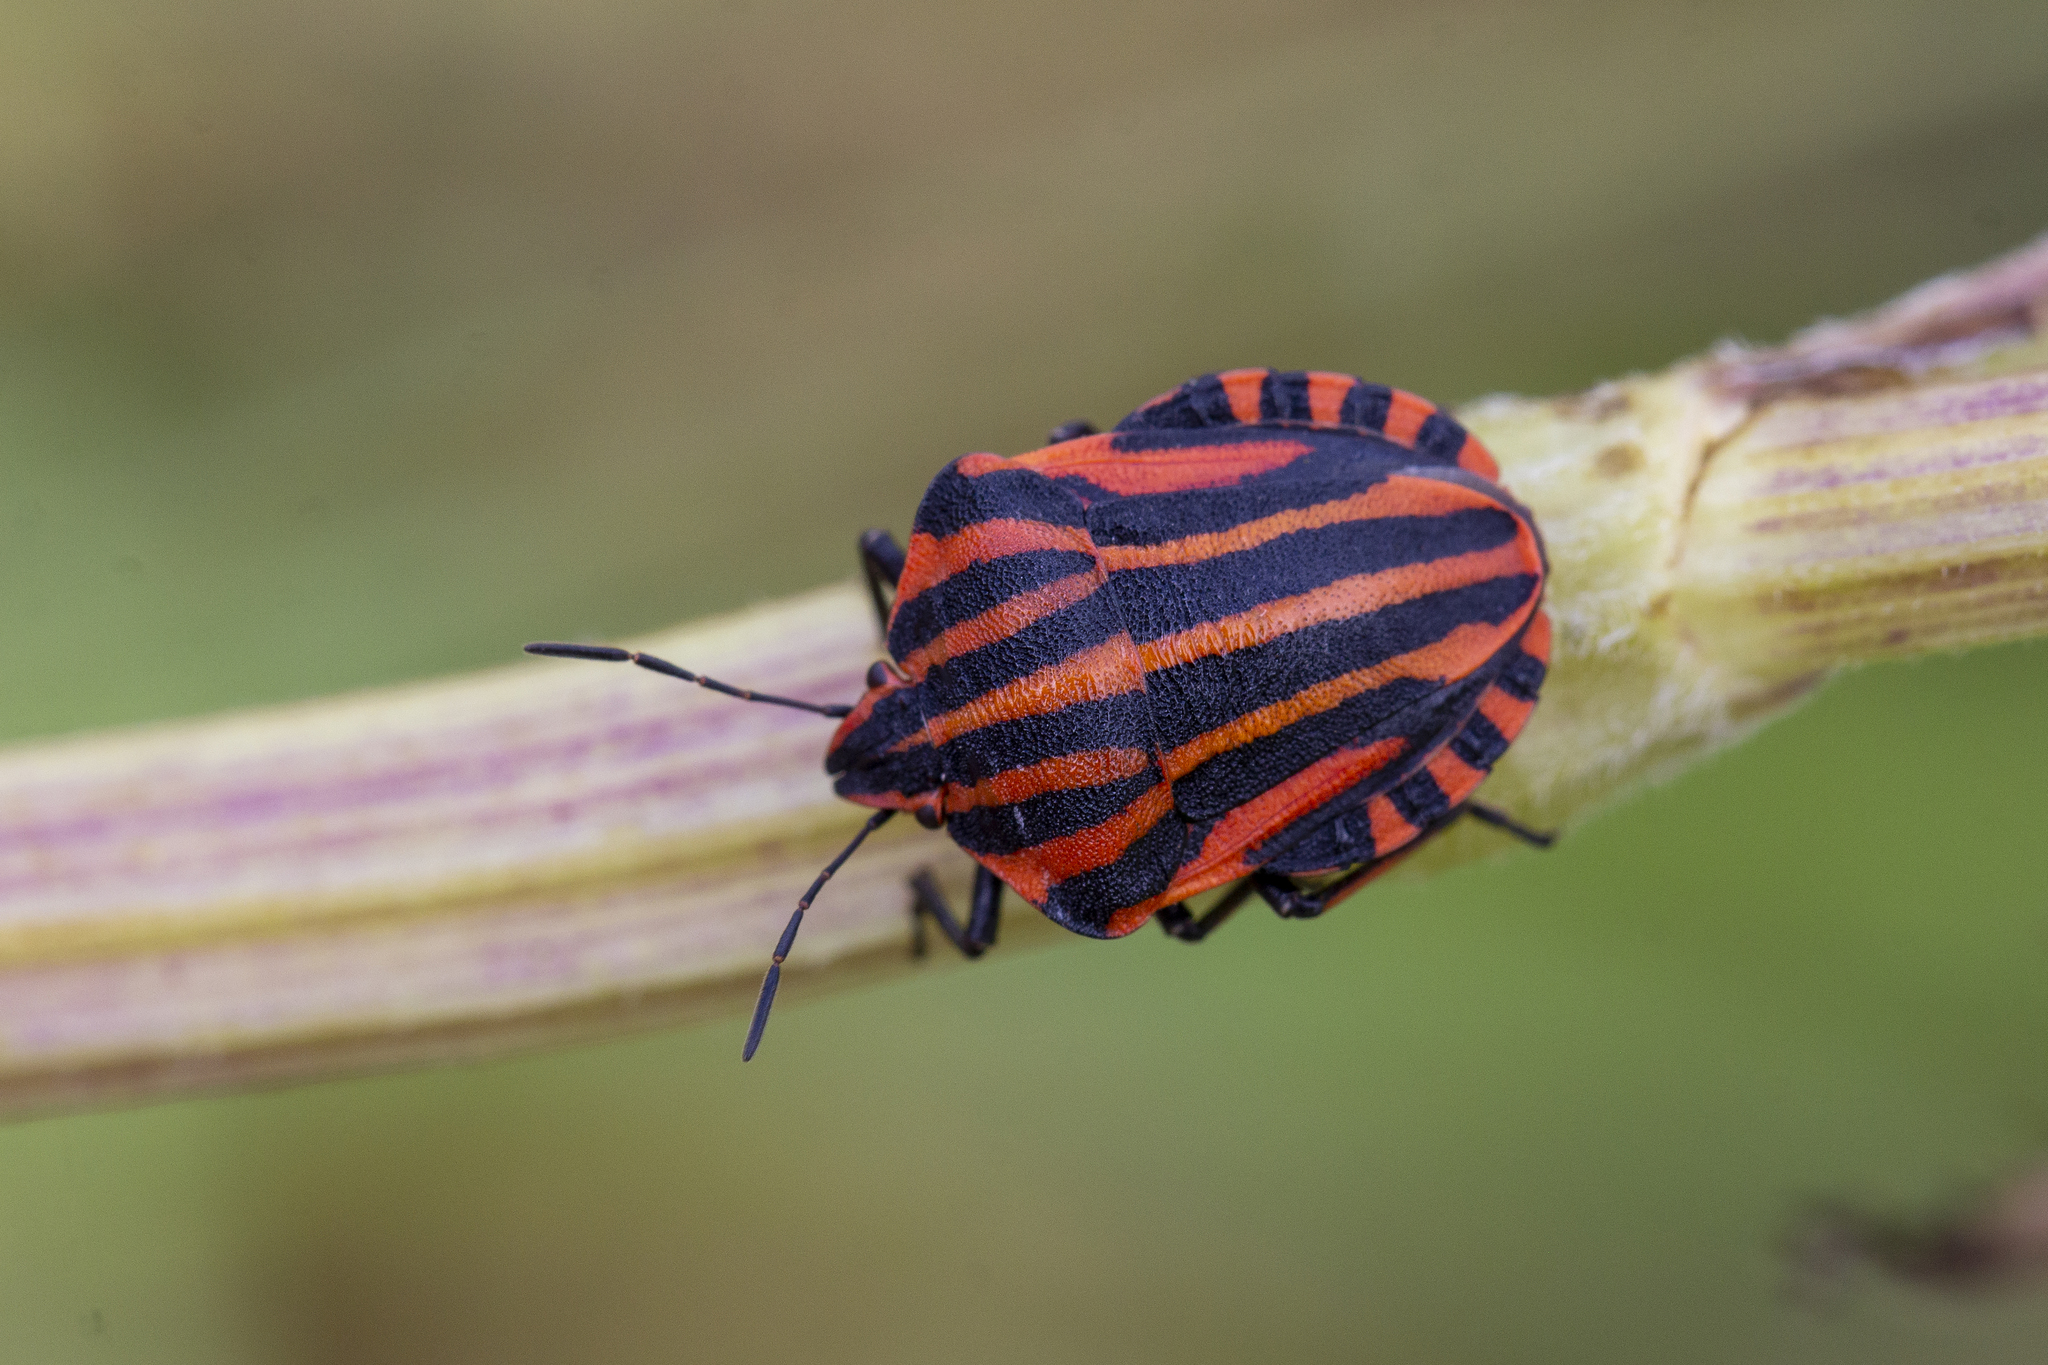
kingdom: Animalia
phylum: Arthropoda
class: Insecta
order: Hemiptera
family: Pentatomidae
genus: Graphosoma
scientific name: Graphosoma italicum
